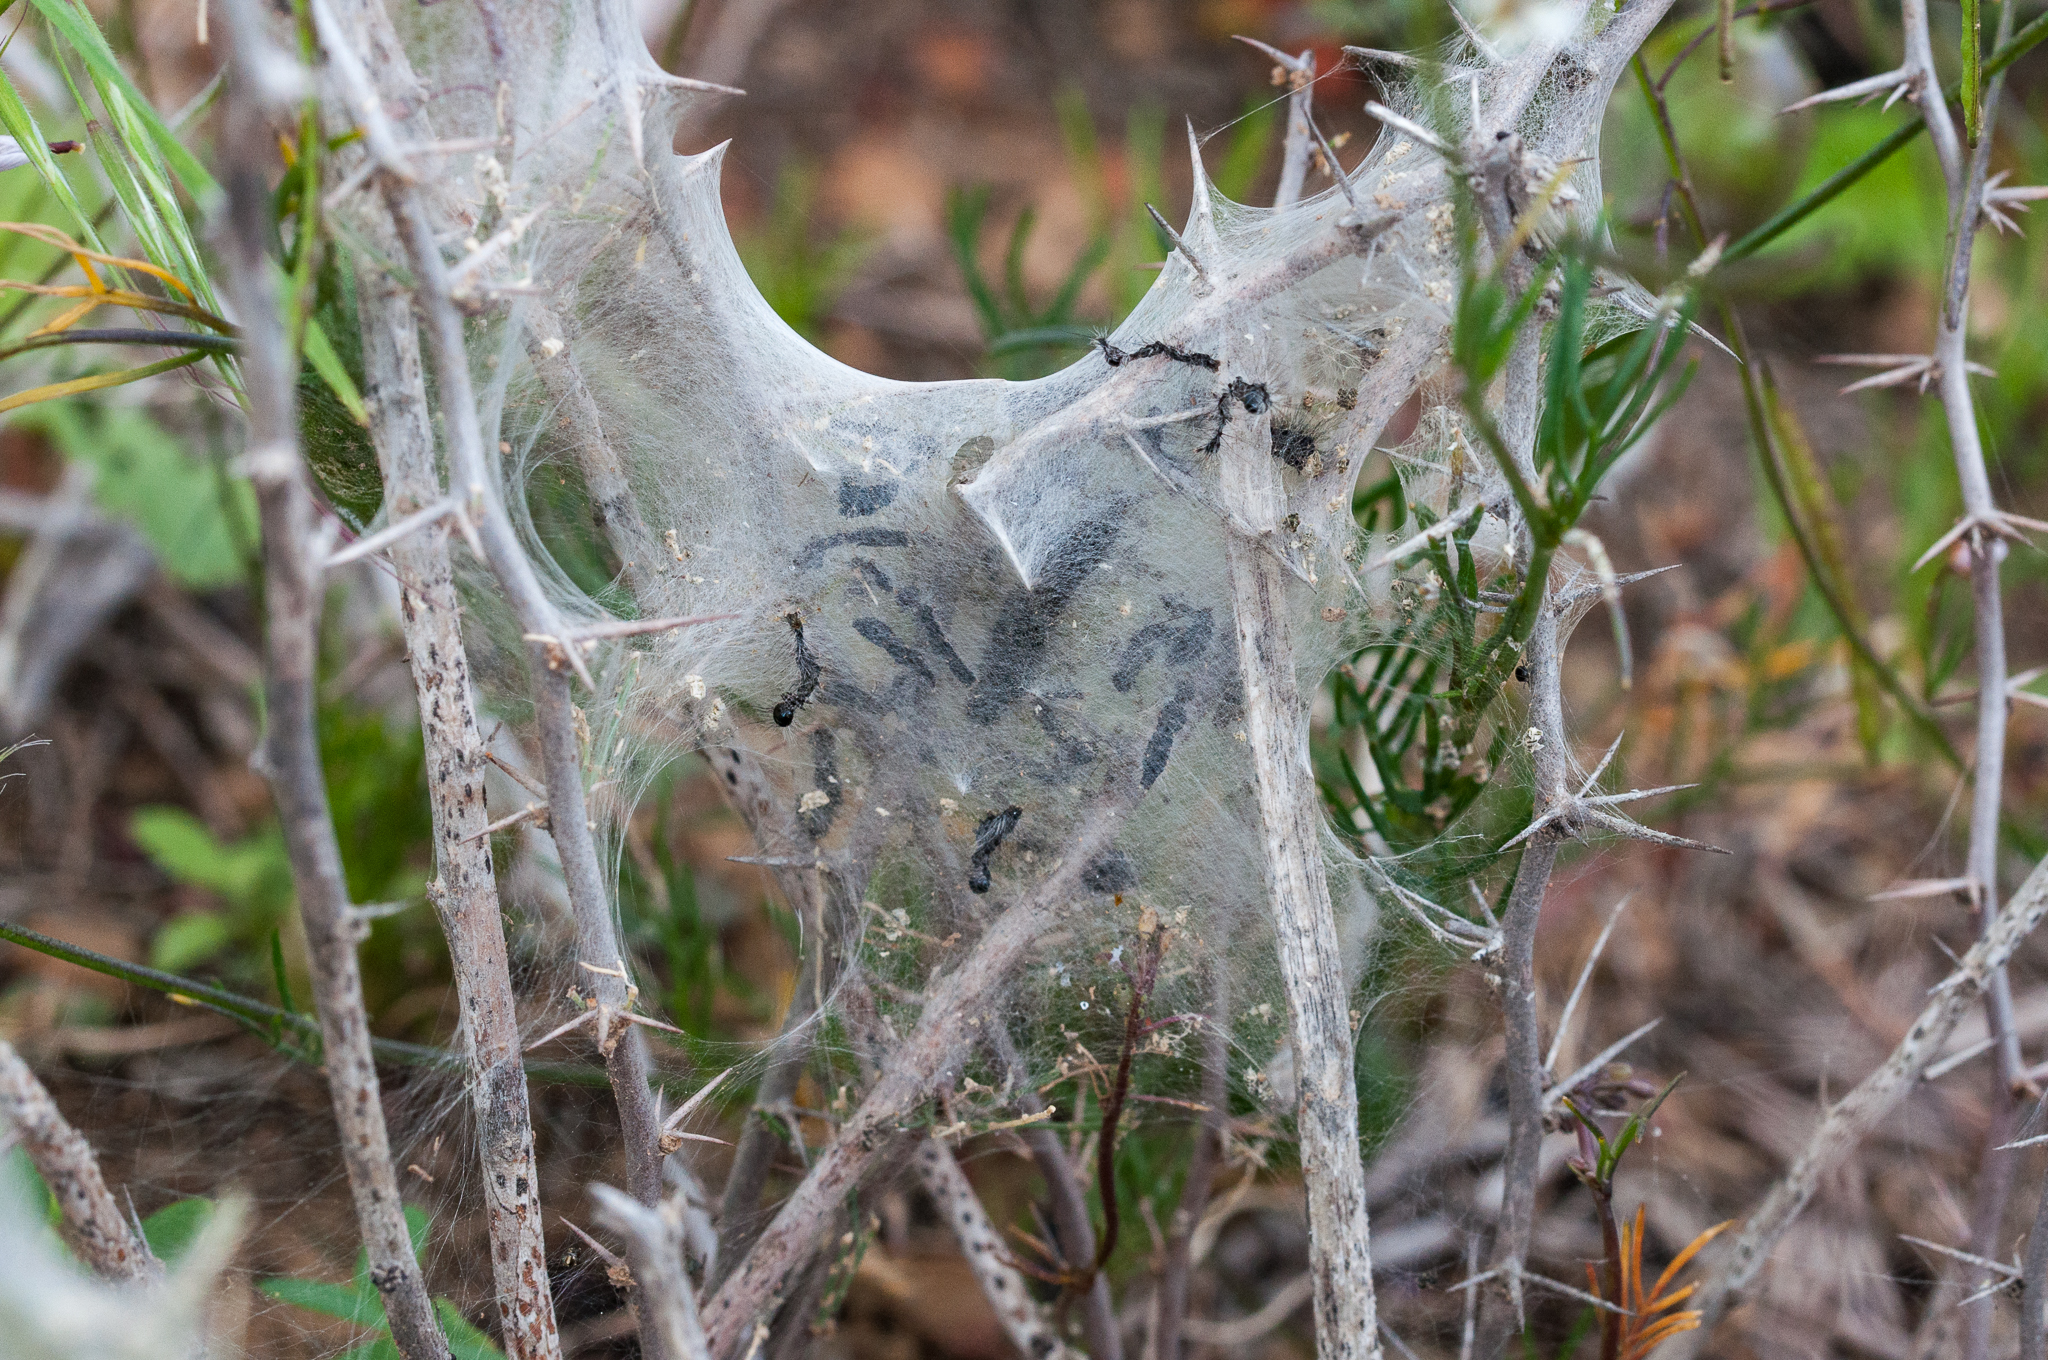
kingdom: Plantae
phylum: Tracheophyta
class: Liliopsida
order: Asparagales
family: Asparagaceae
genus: Asparagus
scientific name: Asparagus capensis
